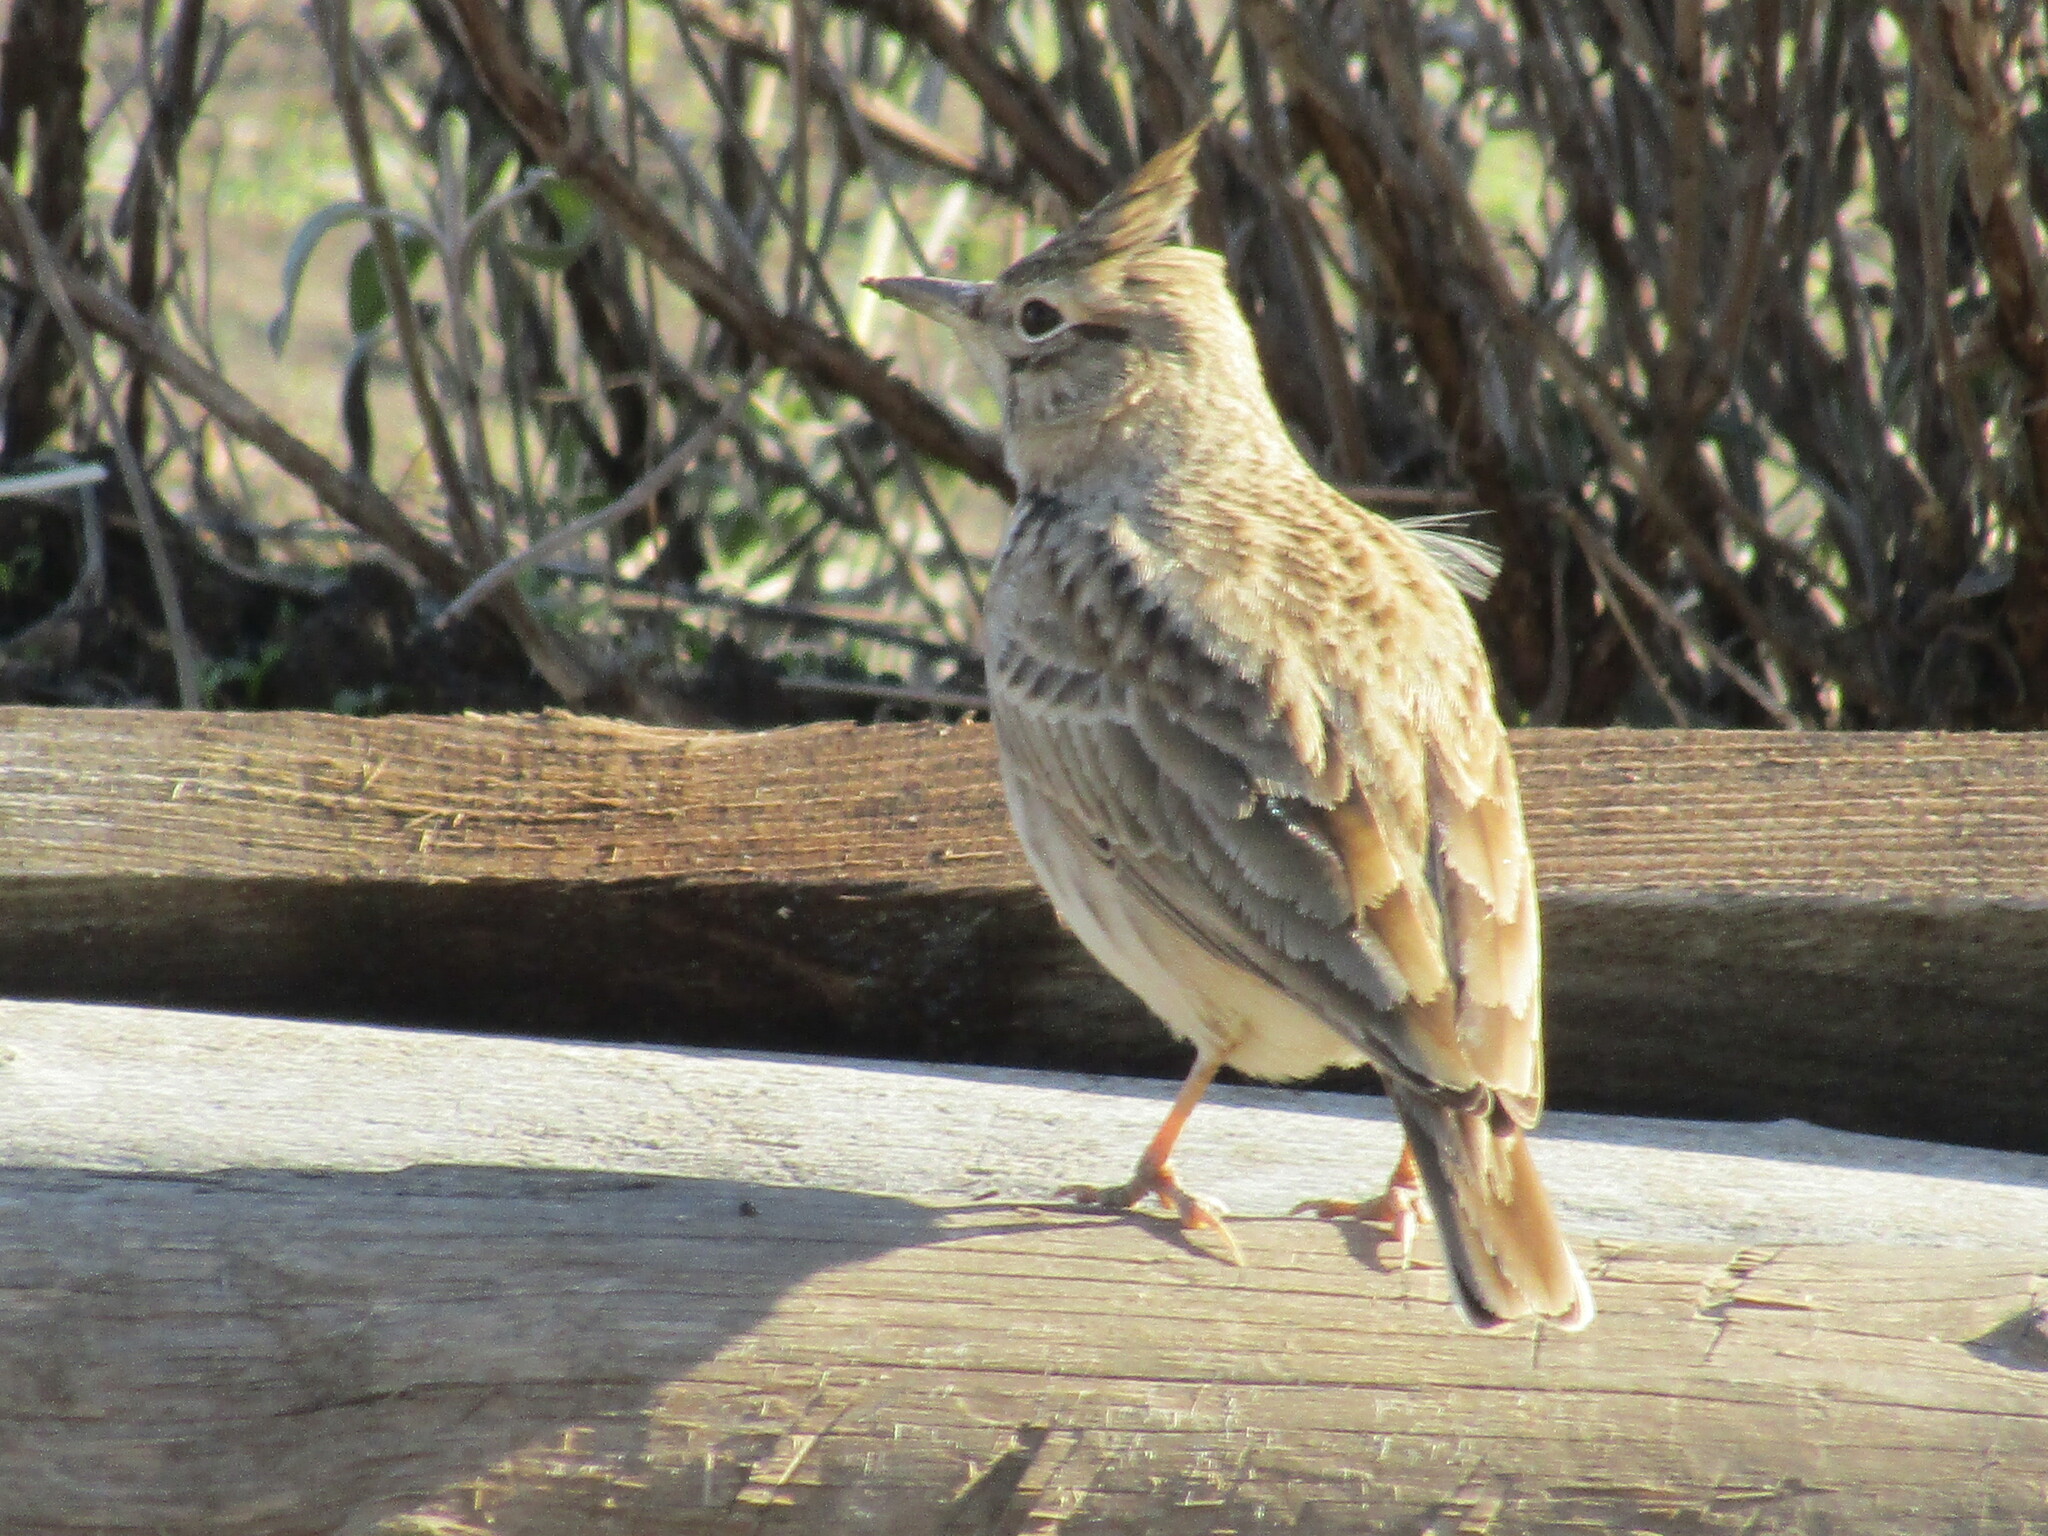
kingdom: Animalia
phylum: Chordata
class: Aves
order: Passeriformes
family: Alaudidae
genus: Galerida
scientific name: Galerida cristata
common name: Crested lark
